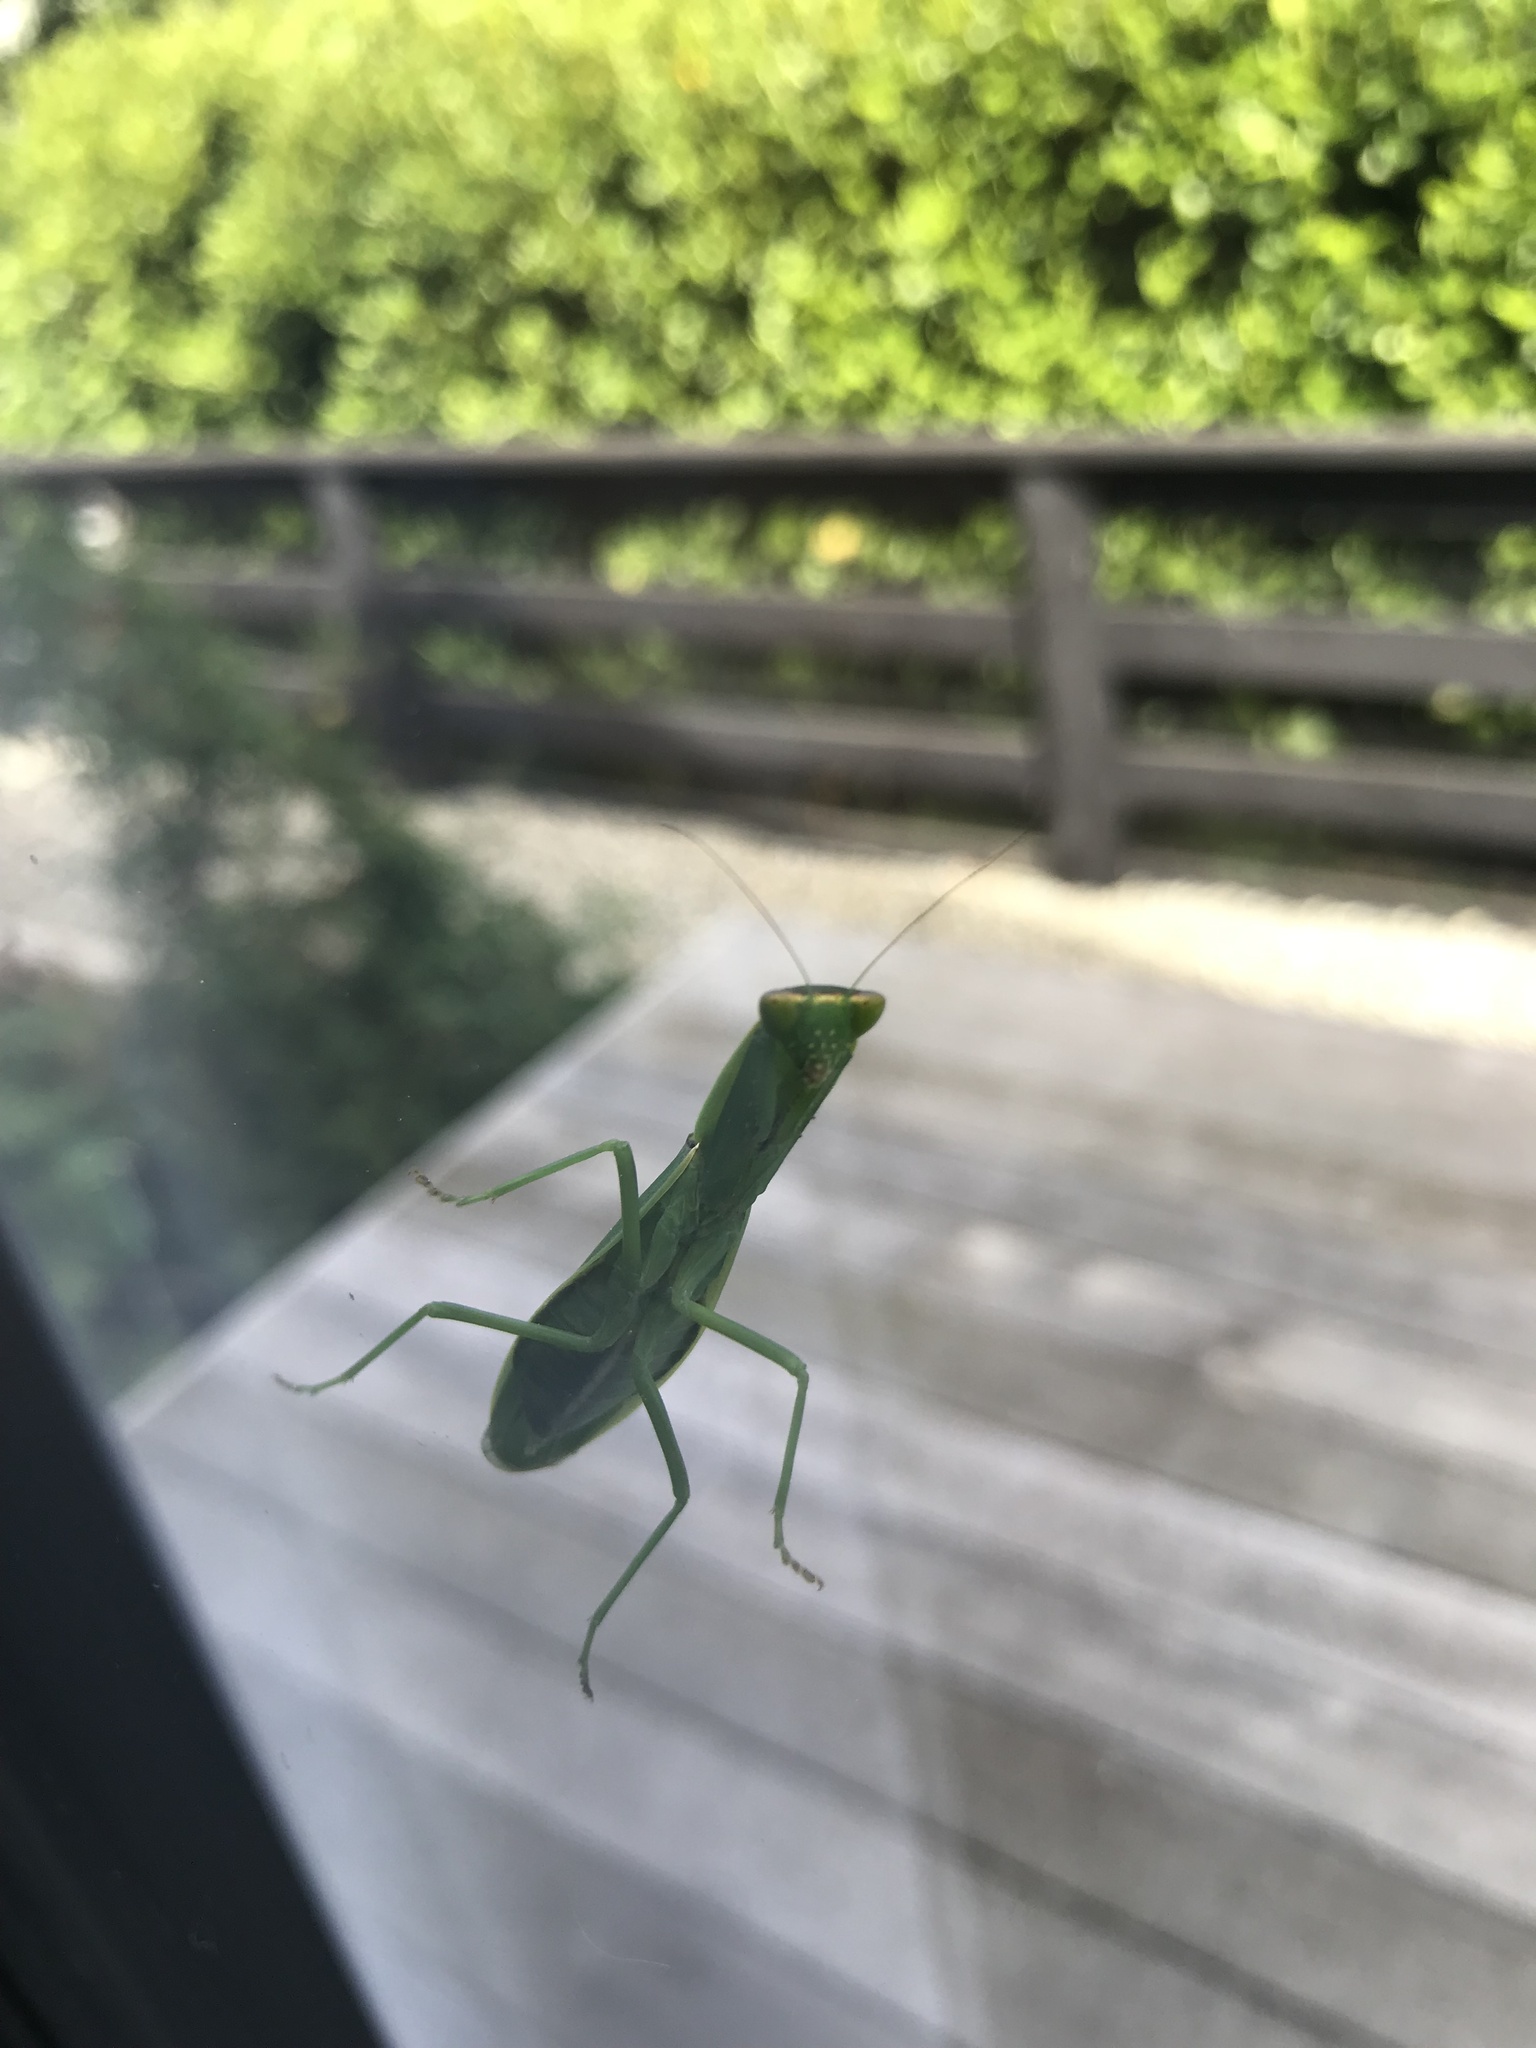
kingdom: Animalia
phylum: Arthropoda
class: Insecta
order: Mantodea
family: Mantidae
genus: Orthodera
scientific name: Orthodera novaezealandiae
